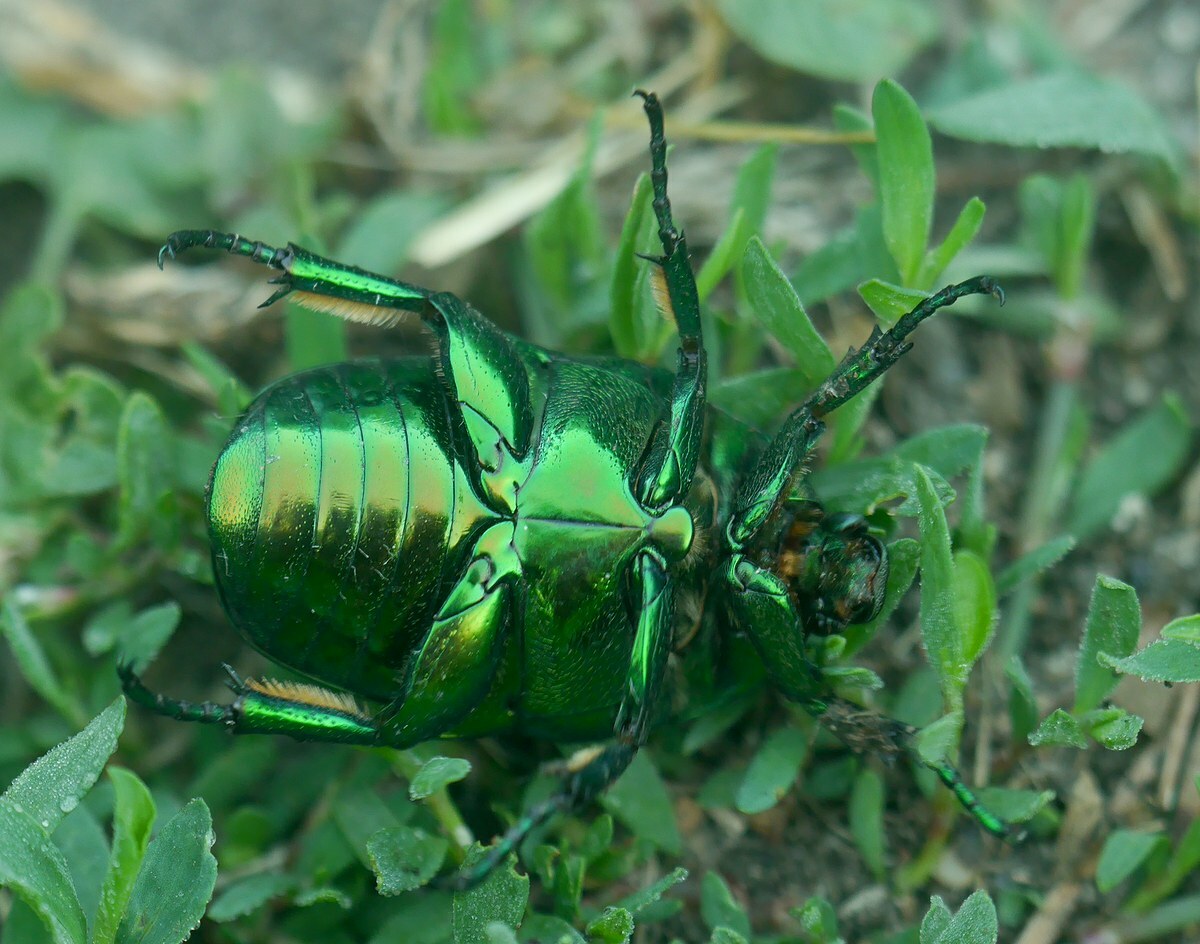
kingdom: Animalia
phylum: Arthropoda
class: Insecta
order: Coleoptera
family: Scarabaeidae
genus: Protaetia
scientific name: Protaetia speciosissima
